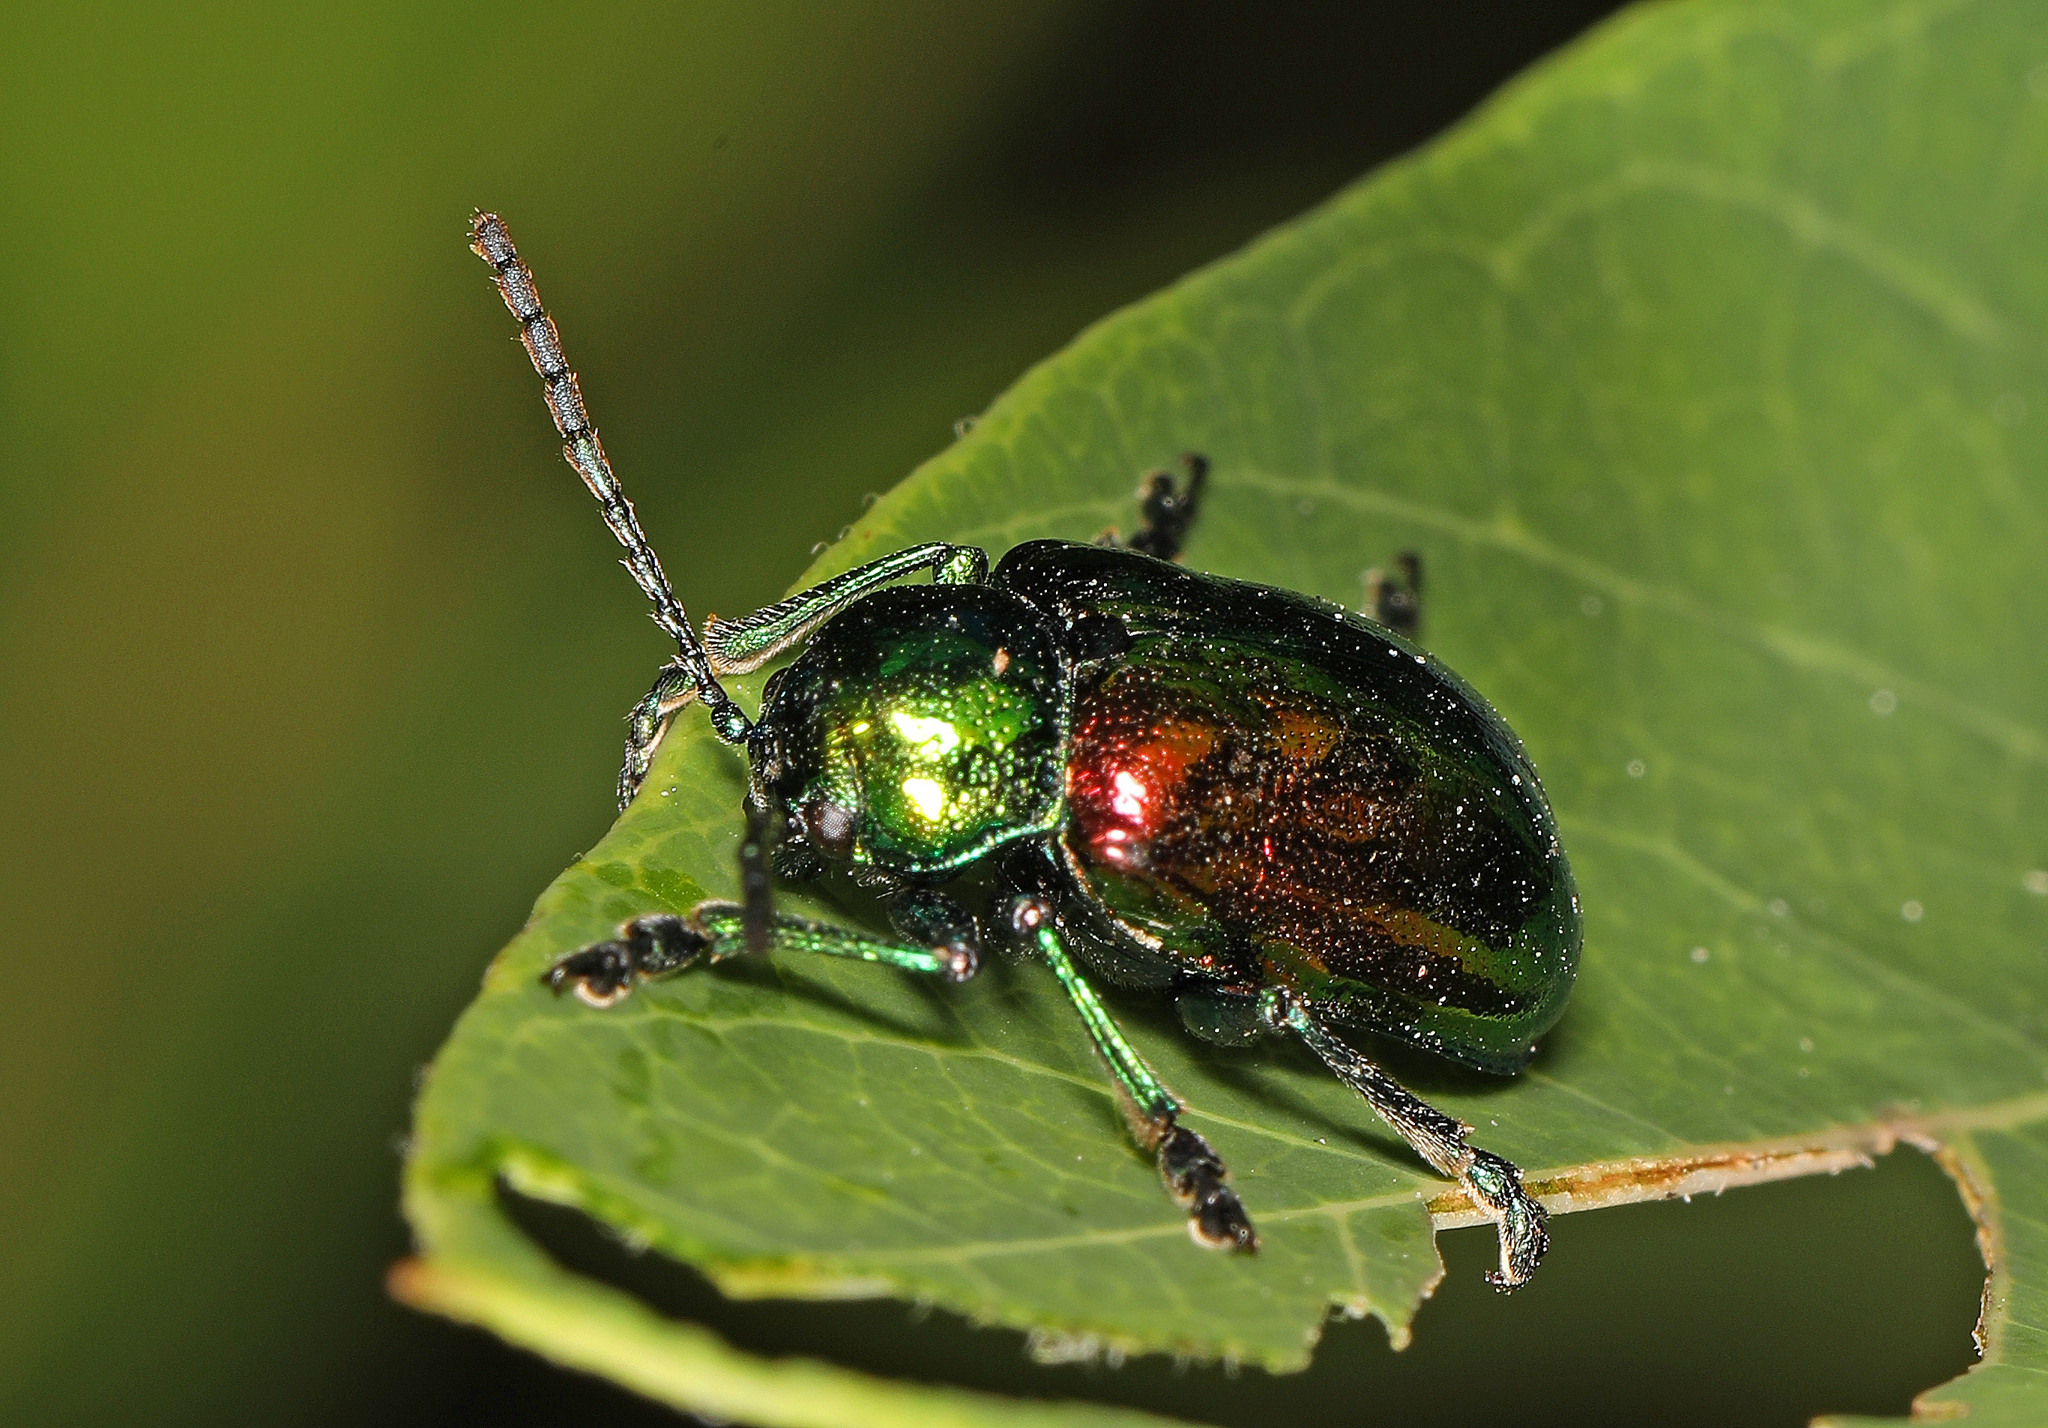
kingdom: Animalia
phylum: Arthropoda
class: Insecta
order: Coleoptera
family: Chrysomelidae
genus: Chrysochus
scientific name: Chrysochus auratus
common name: Dogbane leaf beetle
